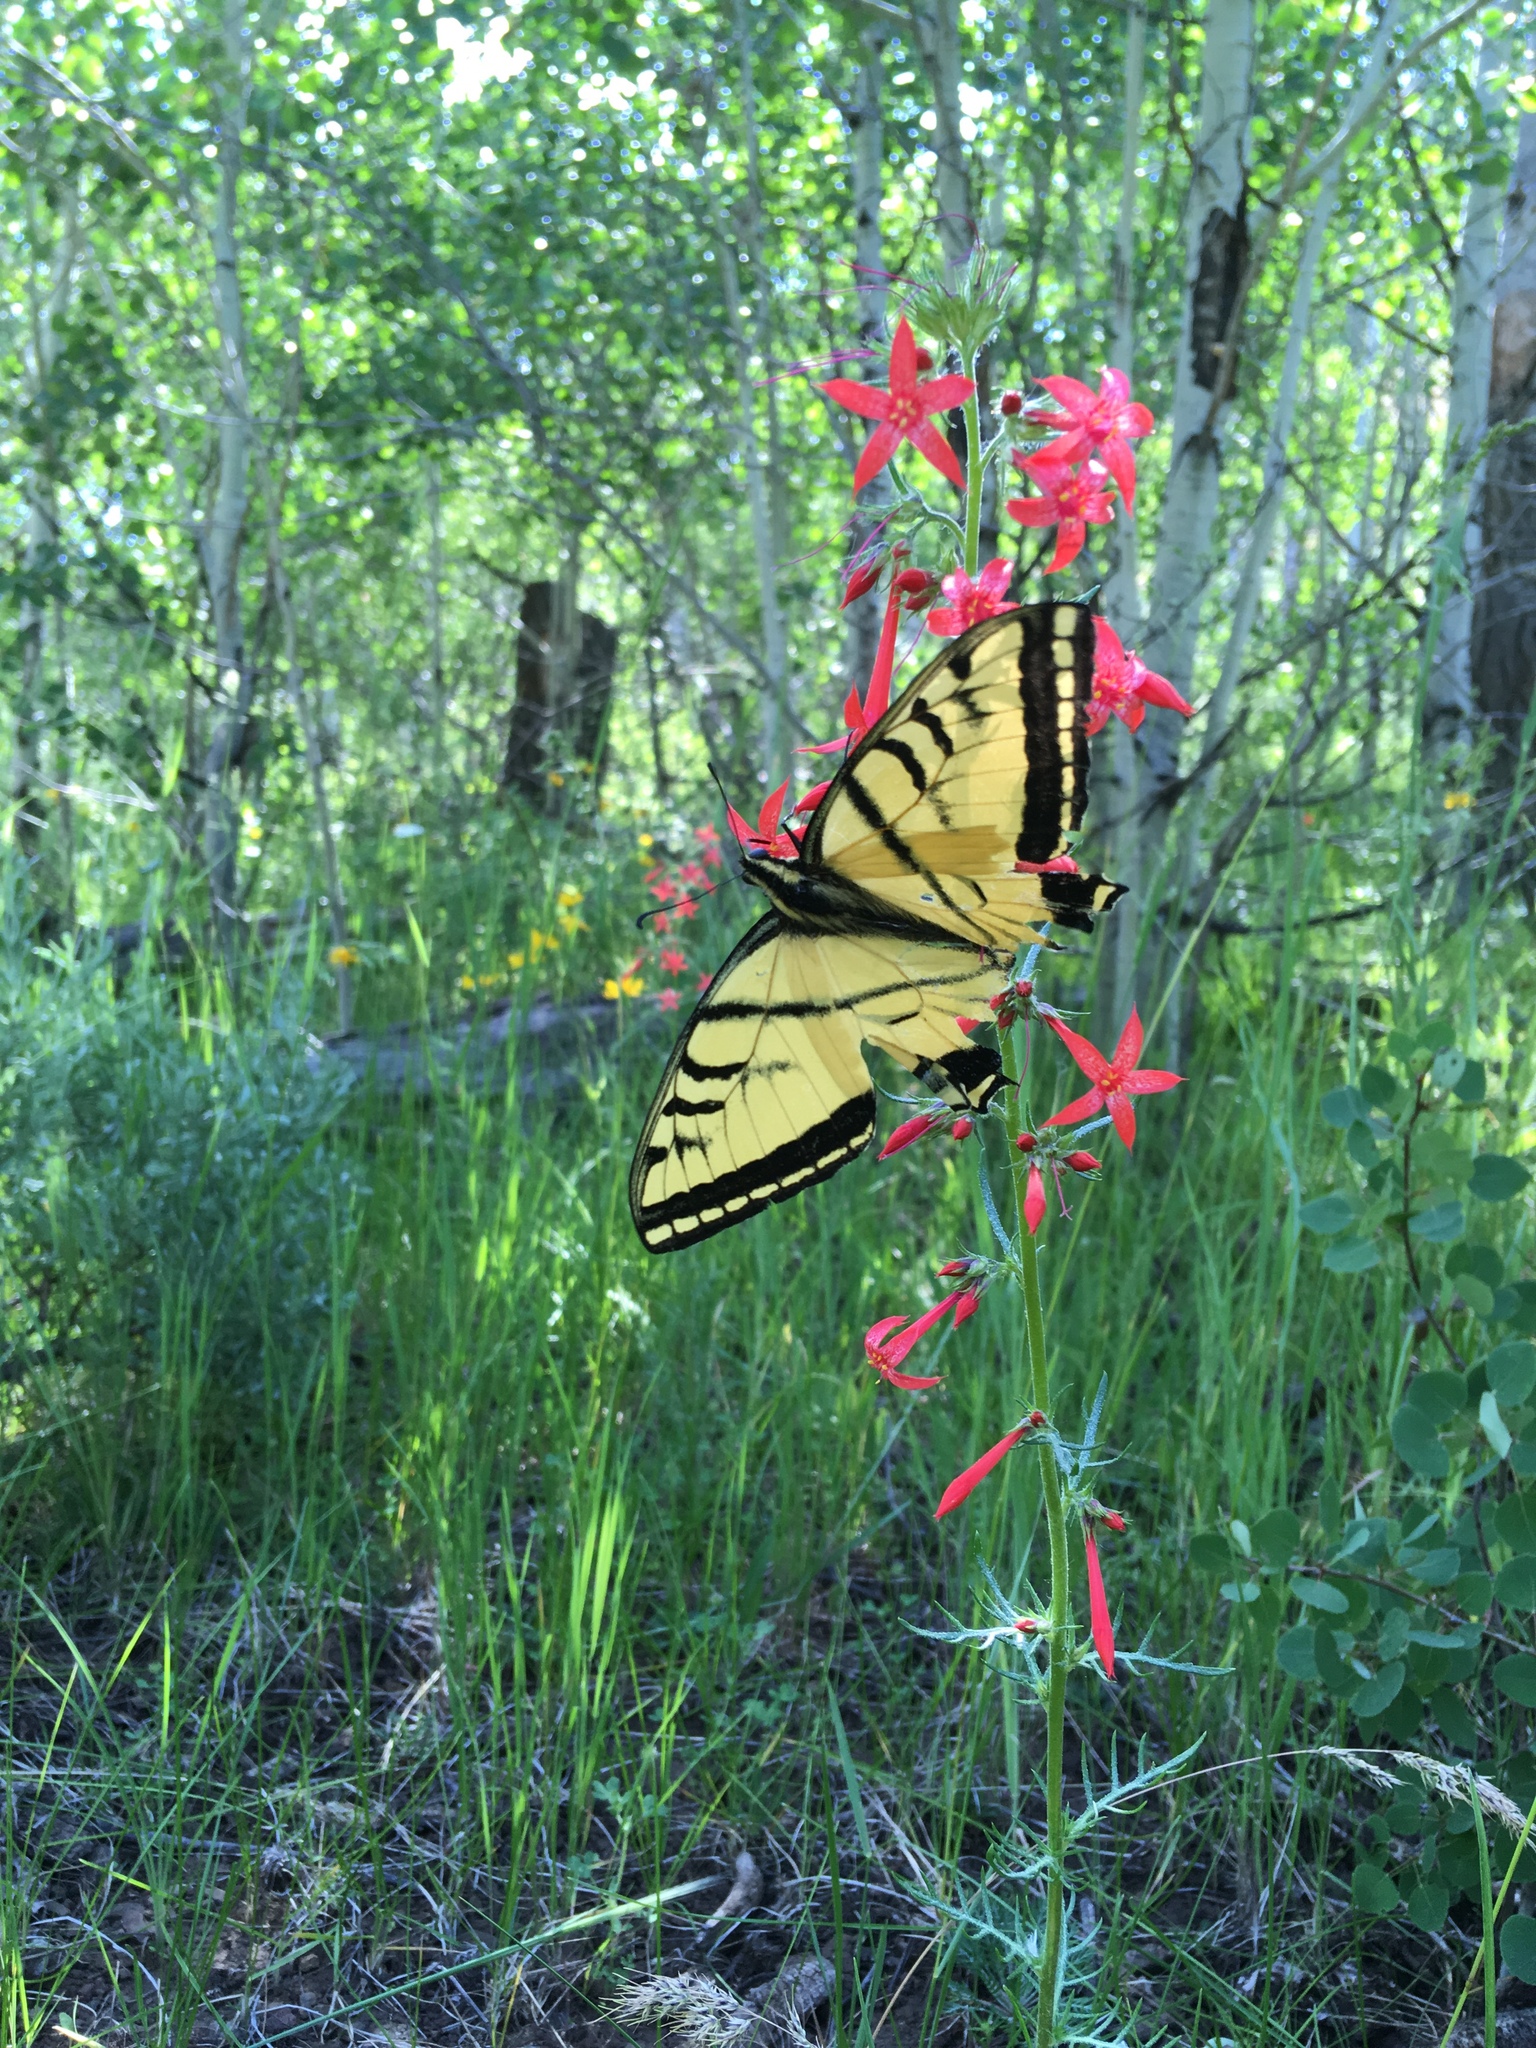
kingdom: Animalia
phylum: Arthropoda
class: Insecta
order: Lepidoptera
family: Papilionidae
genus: Papilio
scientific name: Papilio multicaudata
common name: Two-tailed tiger swallowtail
